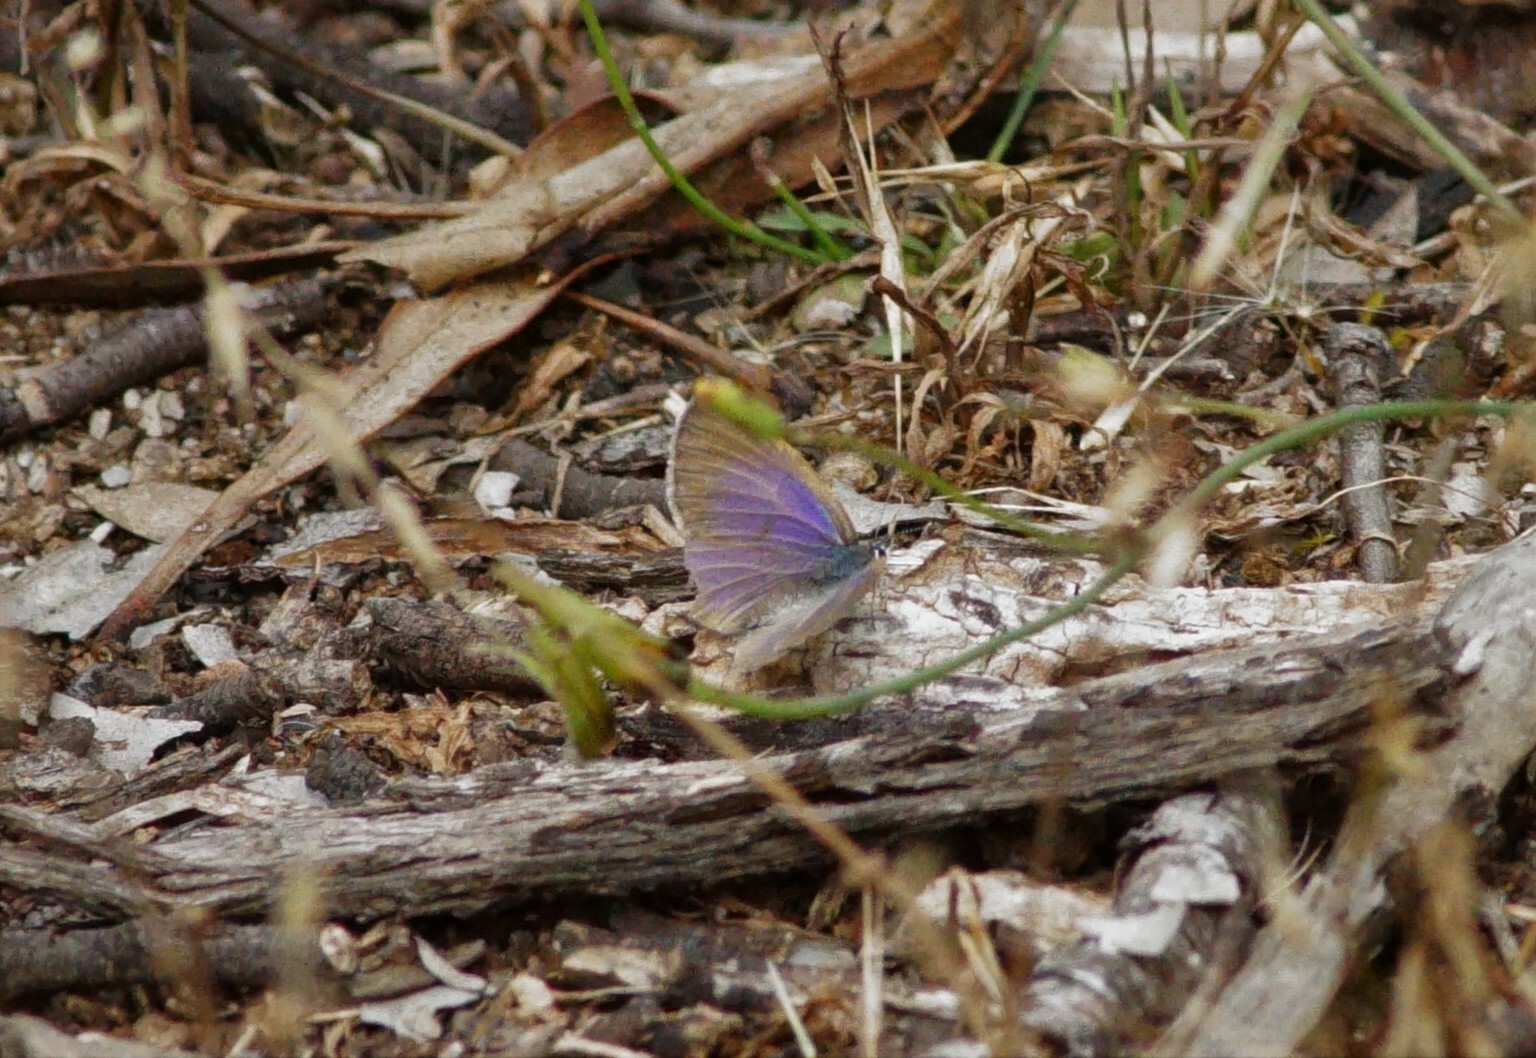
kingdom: Animalia
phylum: Arthropoda
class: Insecta
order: Lepidoptera
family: Lycaenidae
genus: Candalides
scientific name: Candalides heathi
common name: Rayed blue
